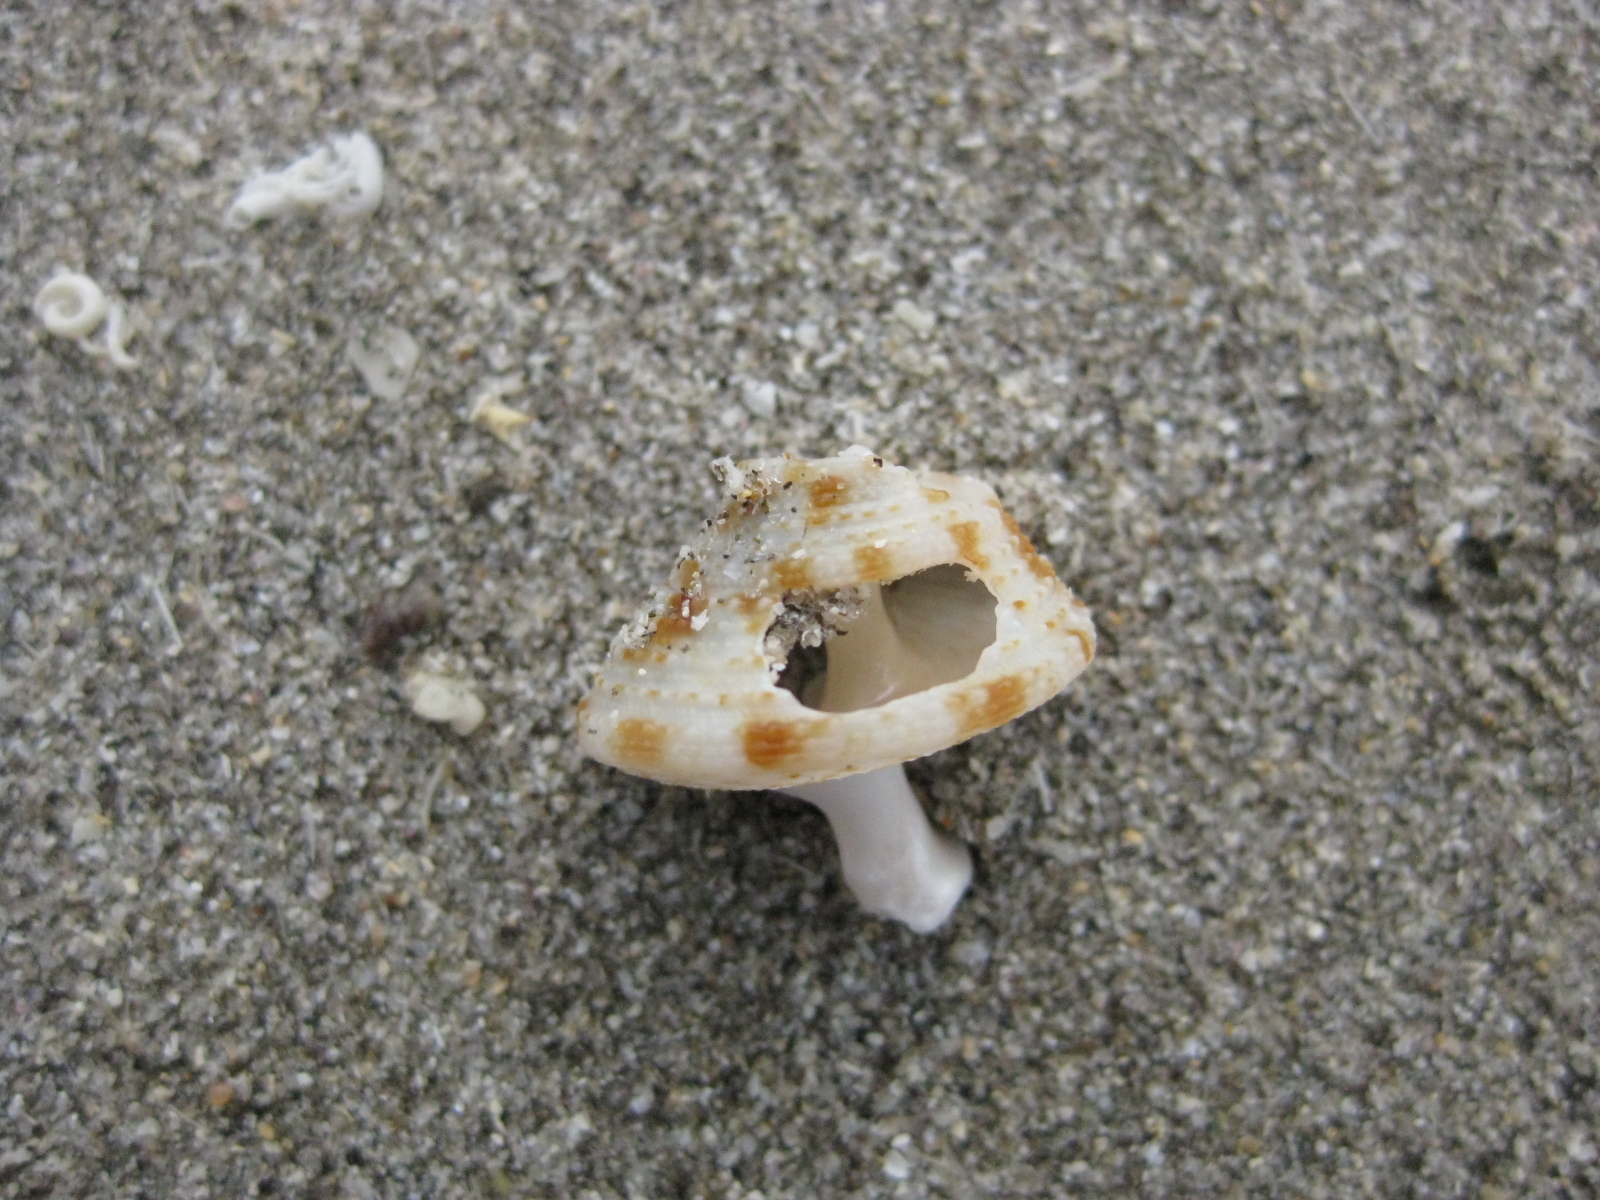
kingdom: Animalia
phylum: Mollusca
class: Gastropoda
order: Trochida
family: Calliostomatidae
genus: Maurea
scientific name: Maurea pellucida
